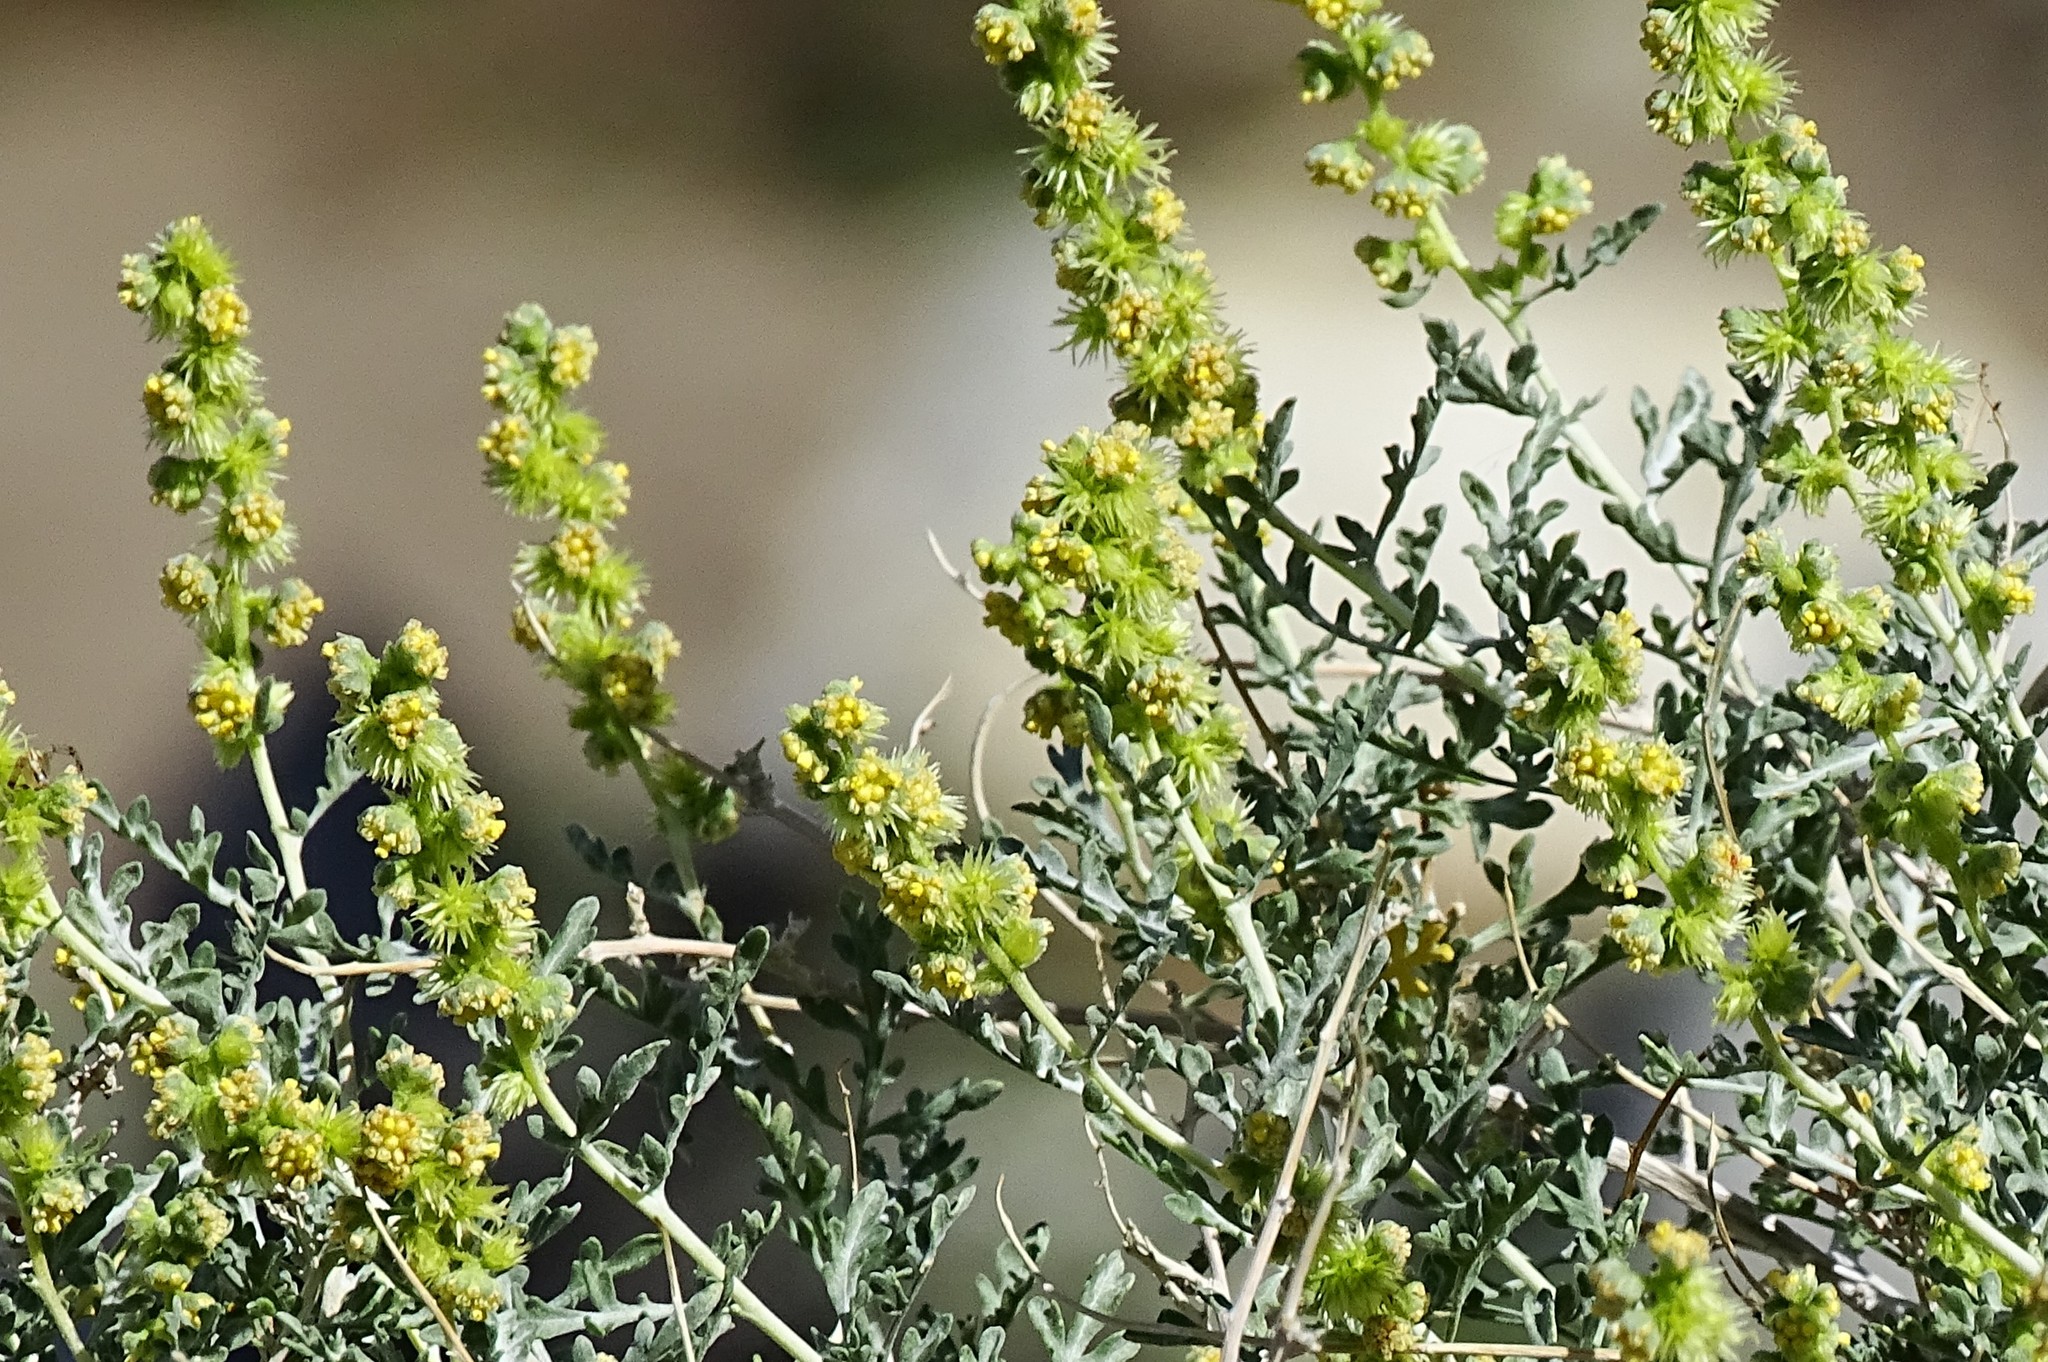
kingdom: Plantae
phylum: Tracheophyta
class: Magnoliopsida
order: Asterales
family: Asteraceae
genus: Ambrosia
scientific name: Ambrosia dumosa
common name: Bur-sage
